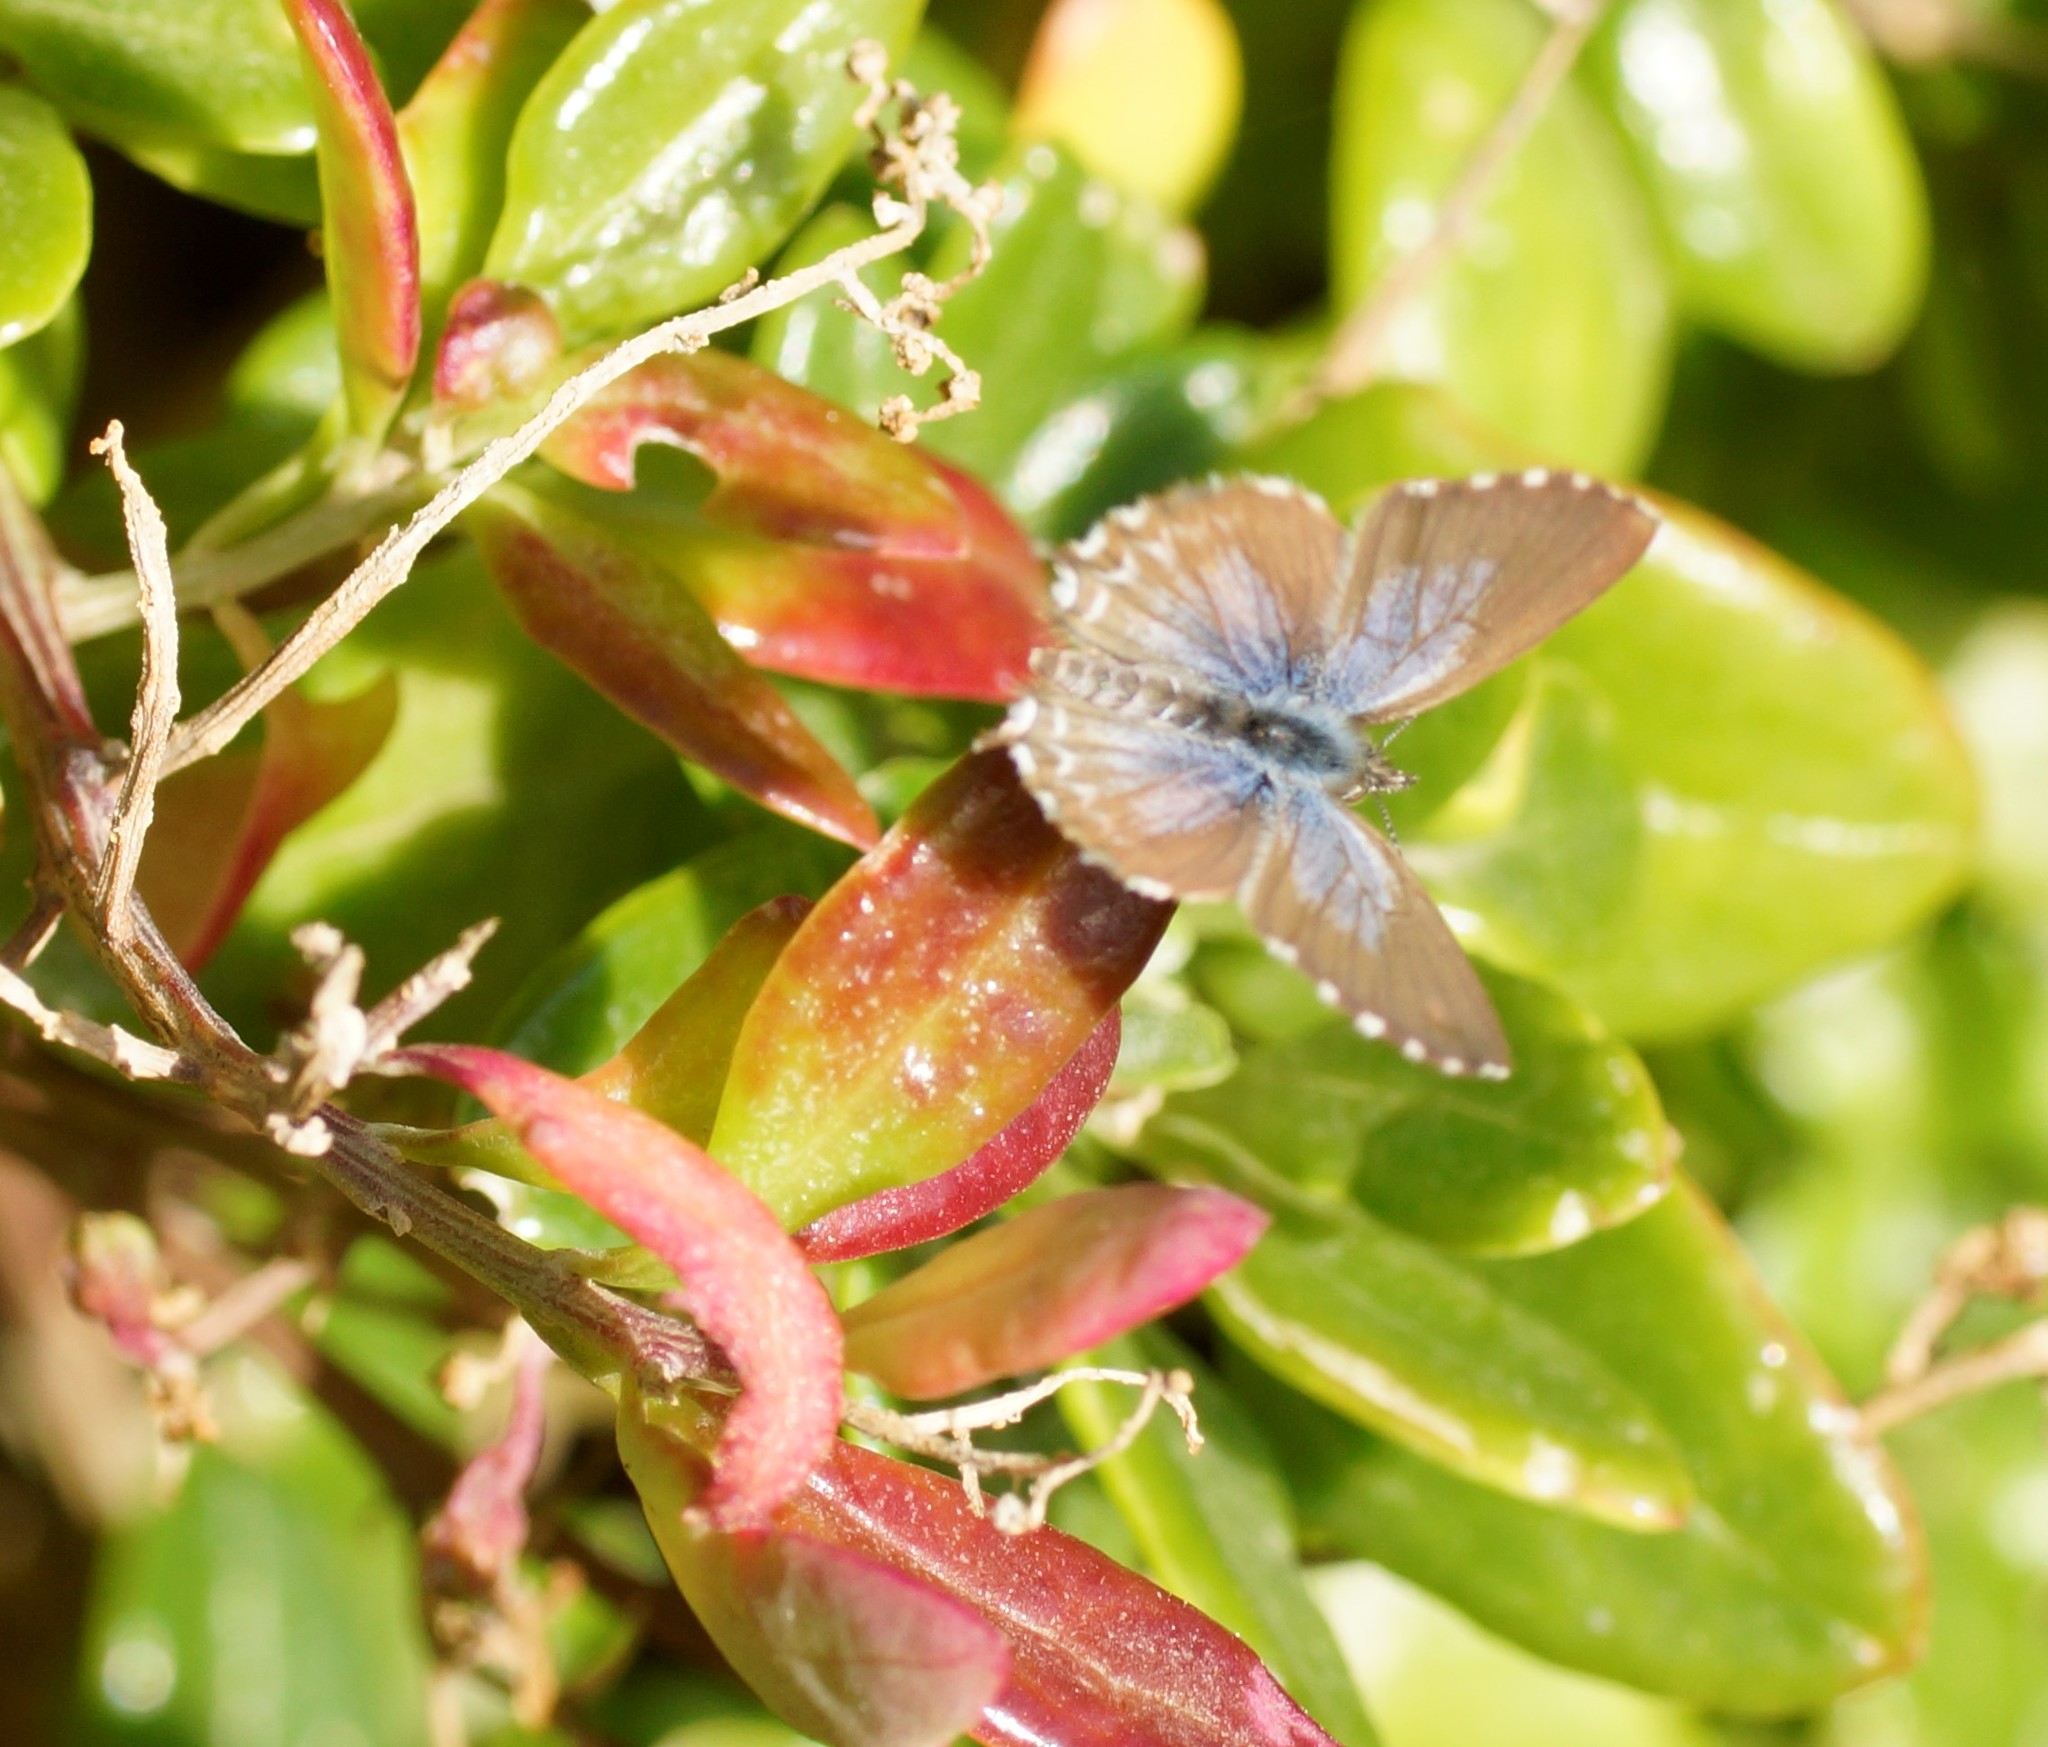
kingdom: Animalia
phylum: Arthropoda
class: Insecta
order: Lepidoptera
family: Lycaenidae
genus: Theclinesthes
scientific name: Theclinesthes serpentata
